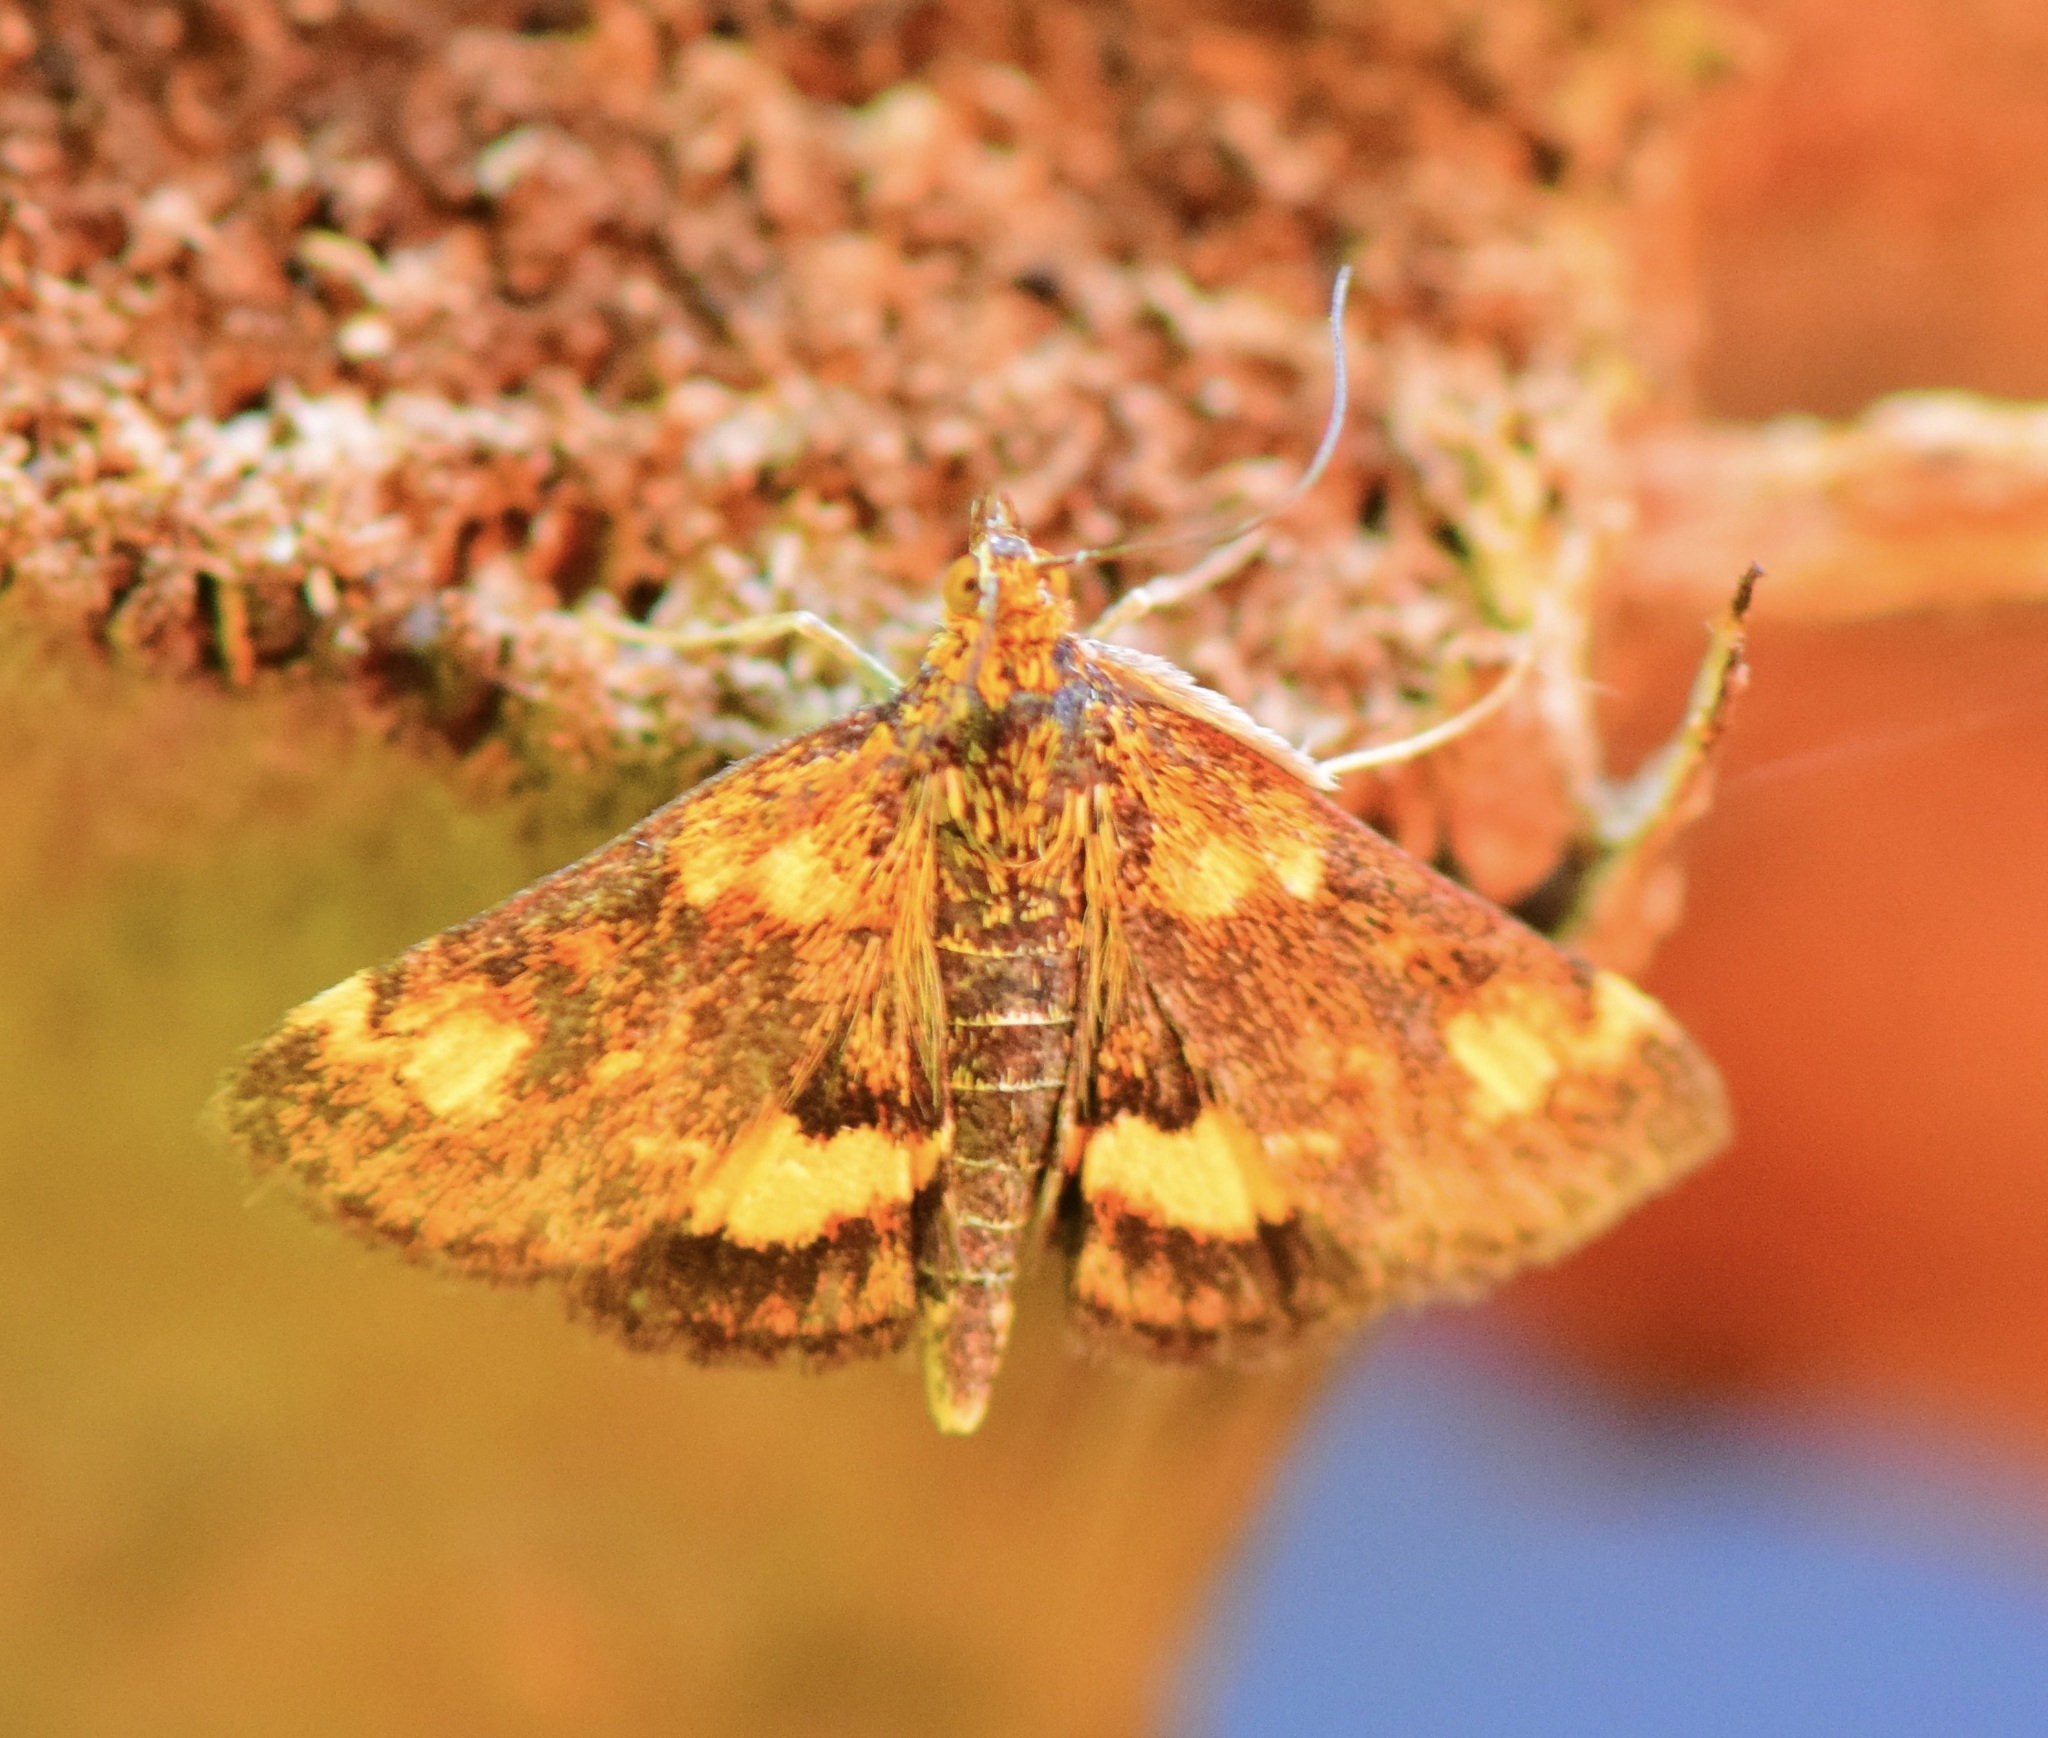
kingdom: Animalia
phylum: Arthropoda
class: Insecta
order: Lepidoptera
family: Crambidae
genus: Pyrausta
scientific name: Pyrausta orphisalis
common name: Orange mint moth
